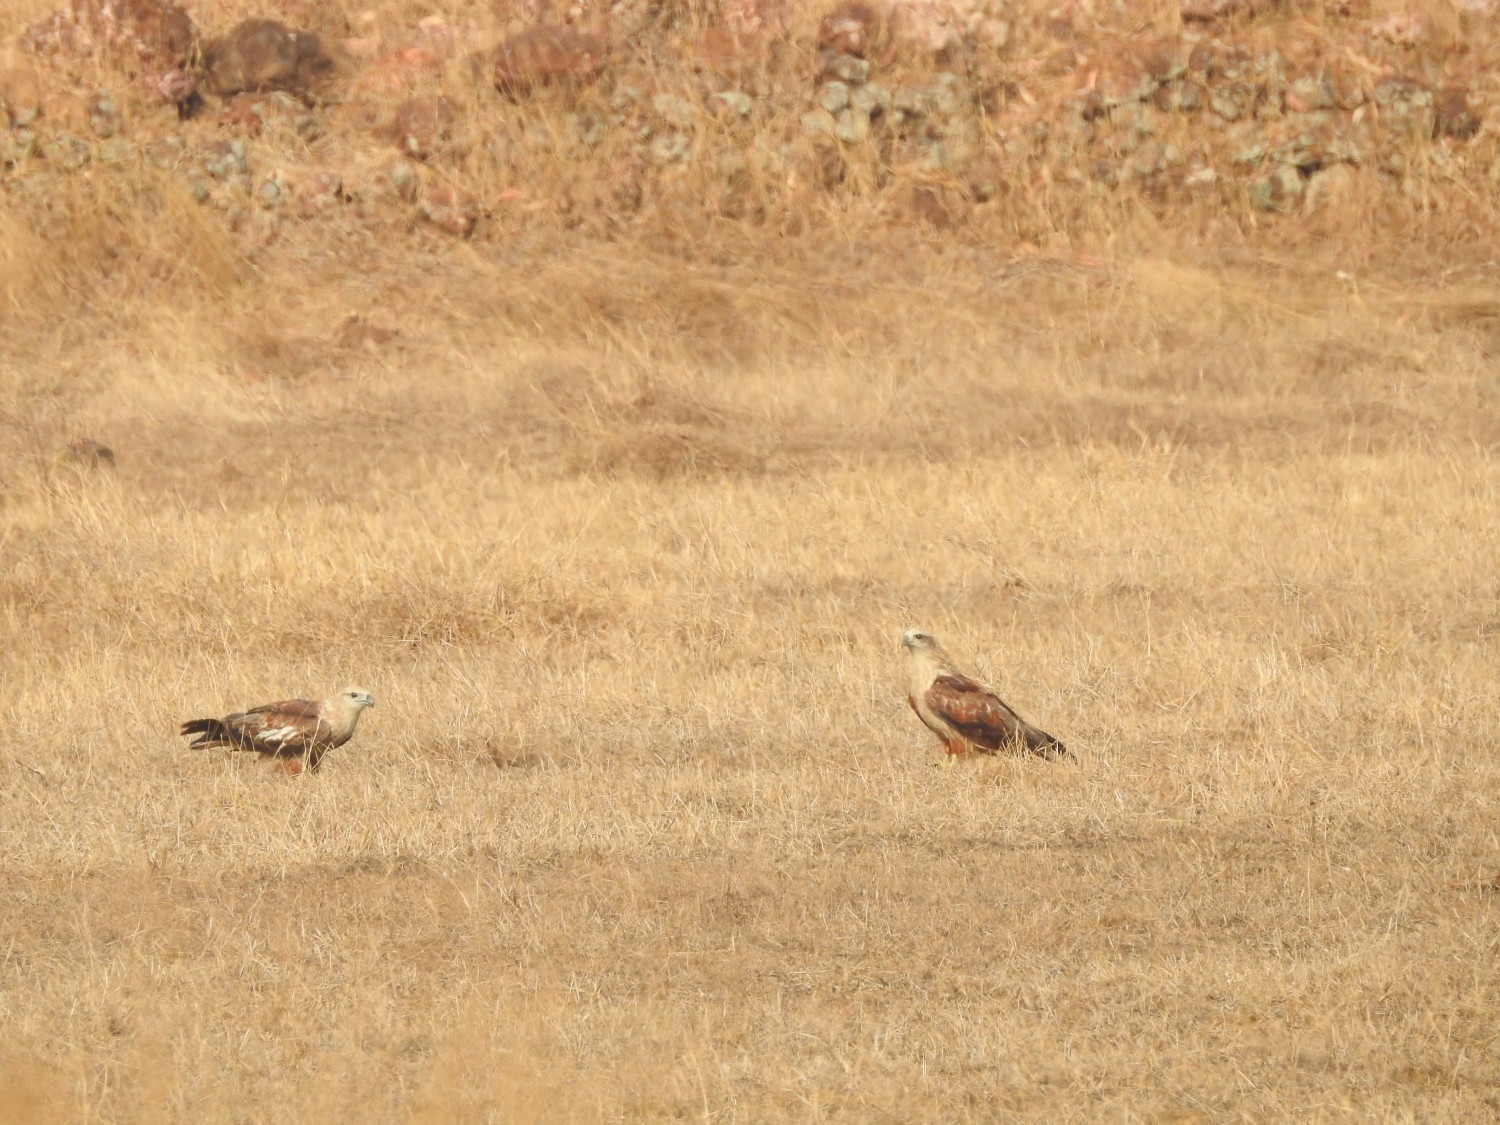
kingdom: Animalia
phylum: Chordata
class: Aves
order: Accipitriformes
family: Accipitridae
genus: Haliastur
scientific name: Haliastur indus
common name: Brahminy kite
